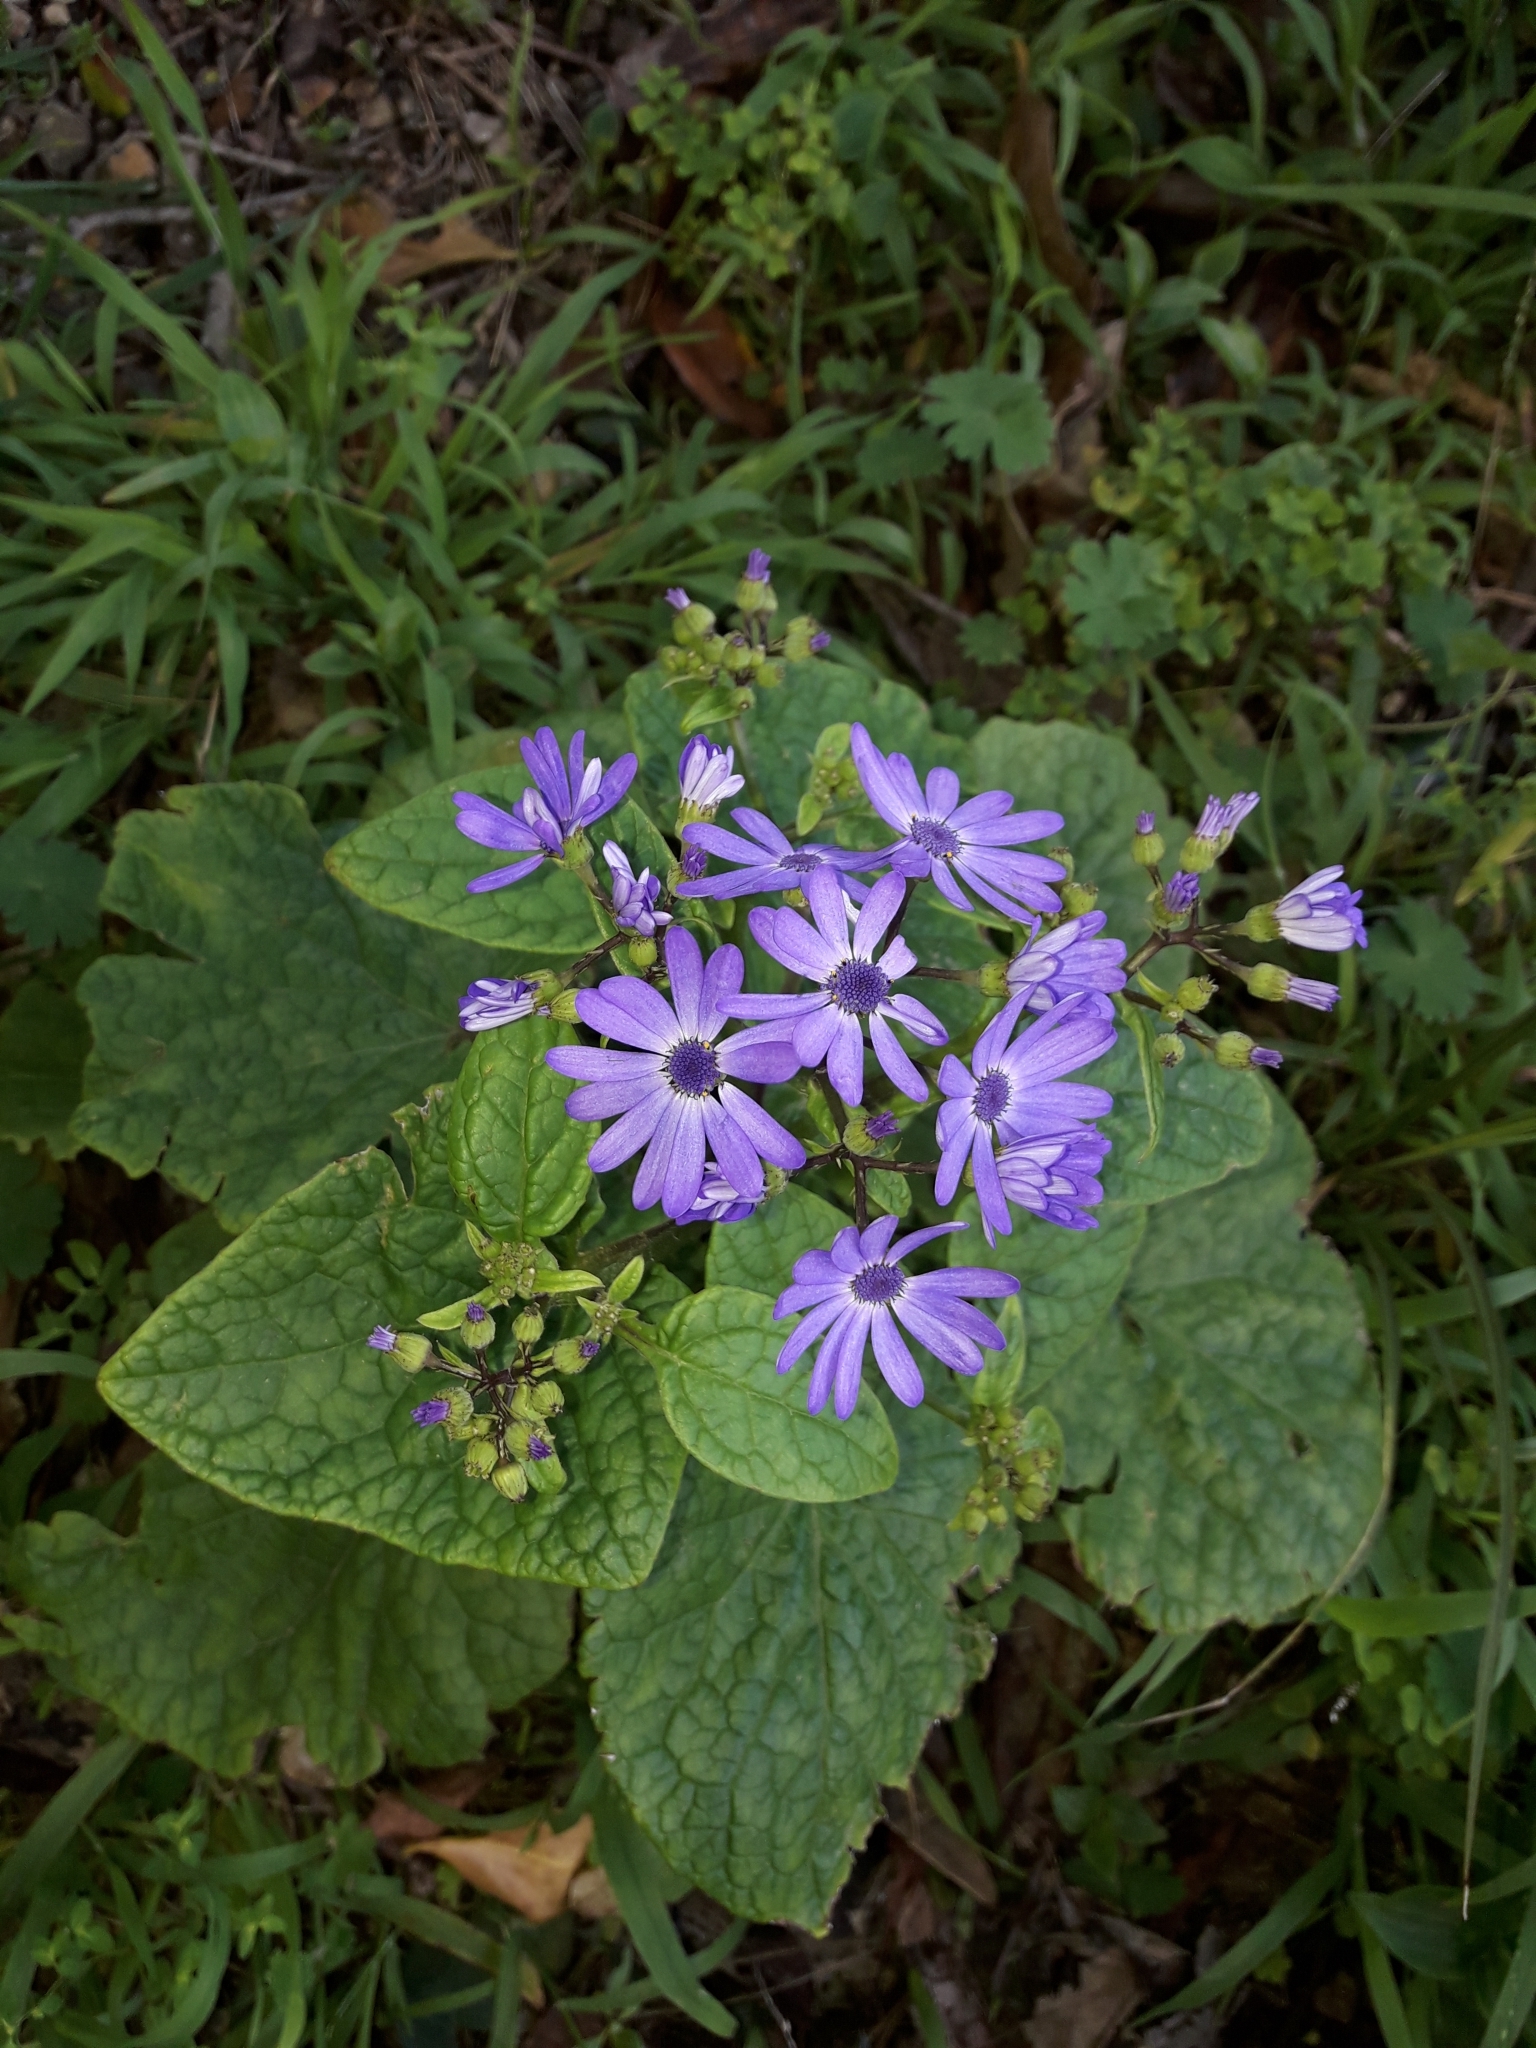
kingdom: Plantae
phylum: Tracheophyta
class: Magnoliopsida
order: Asterales
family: Asteraceae
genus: Pericallis
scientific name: Pericallis hybrida
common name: Cineraria
